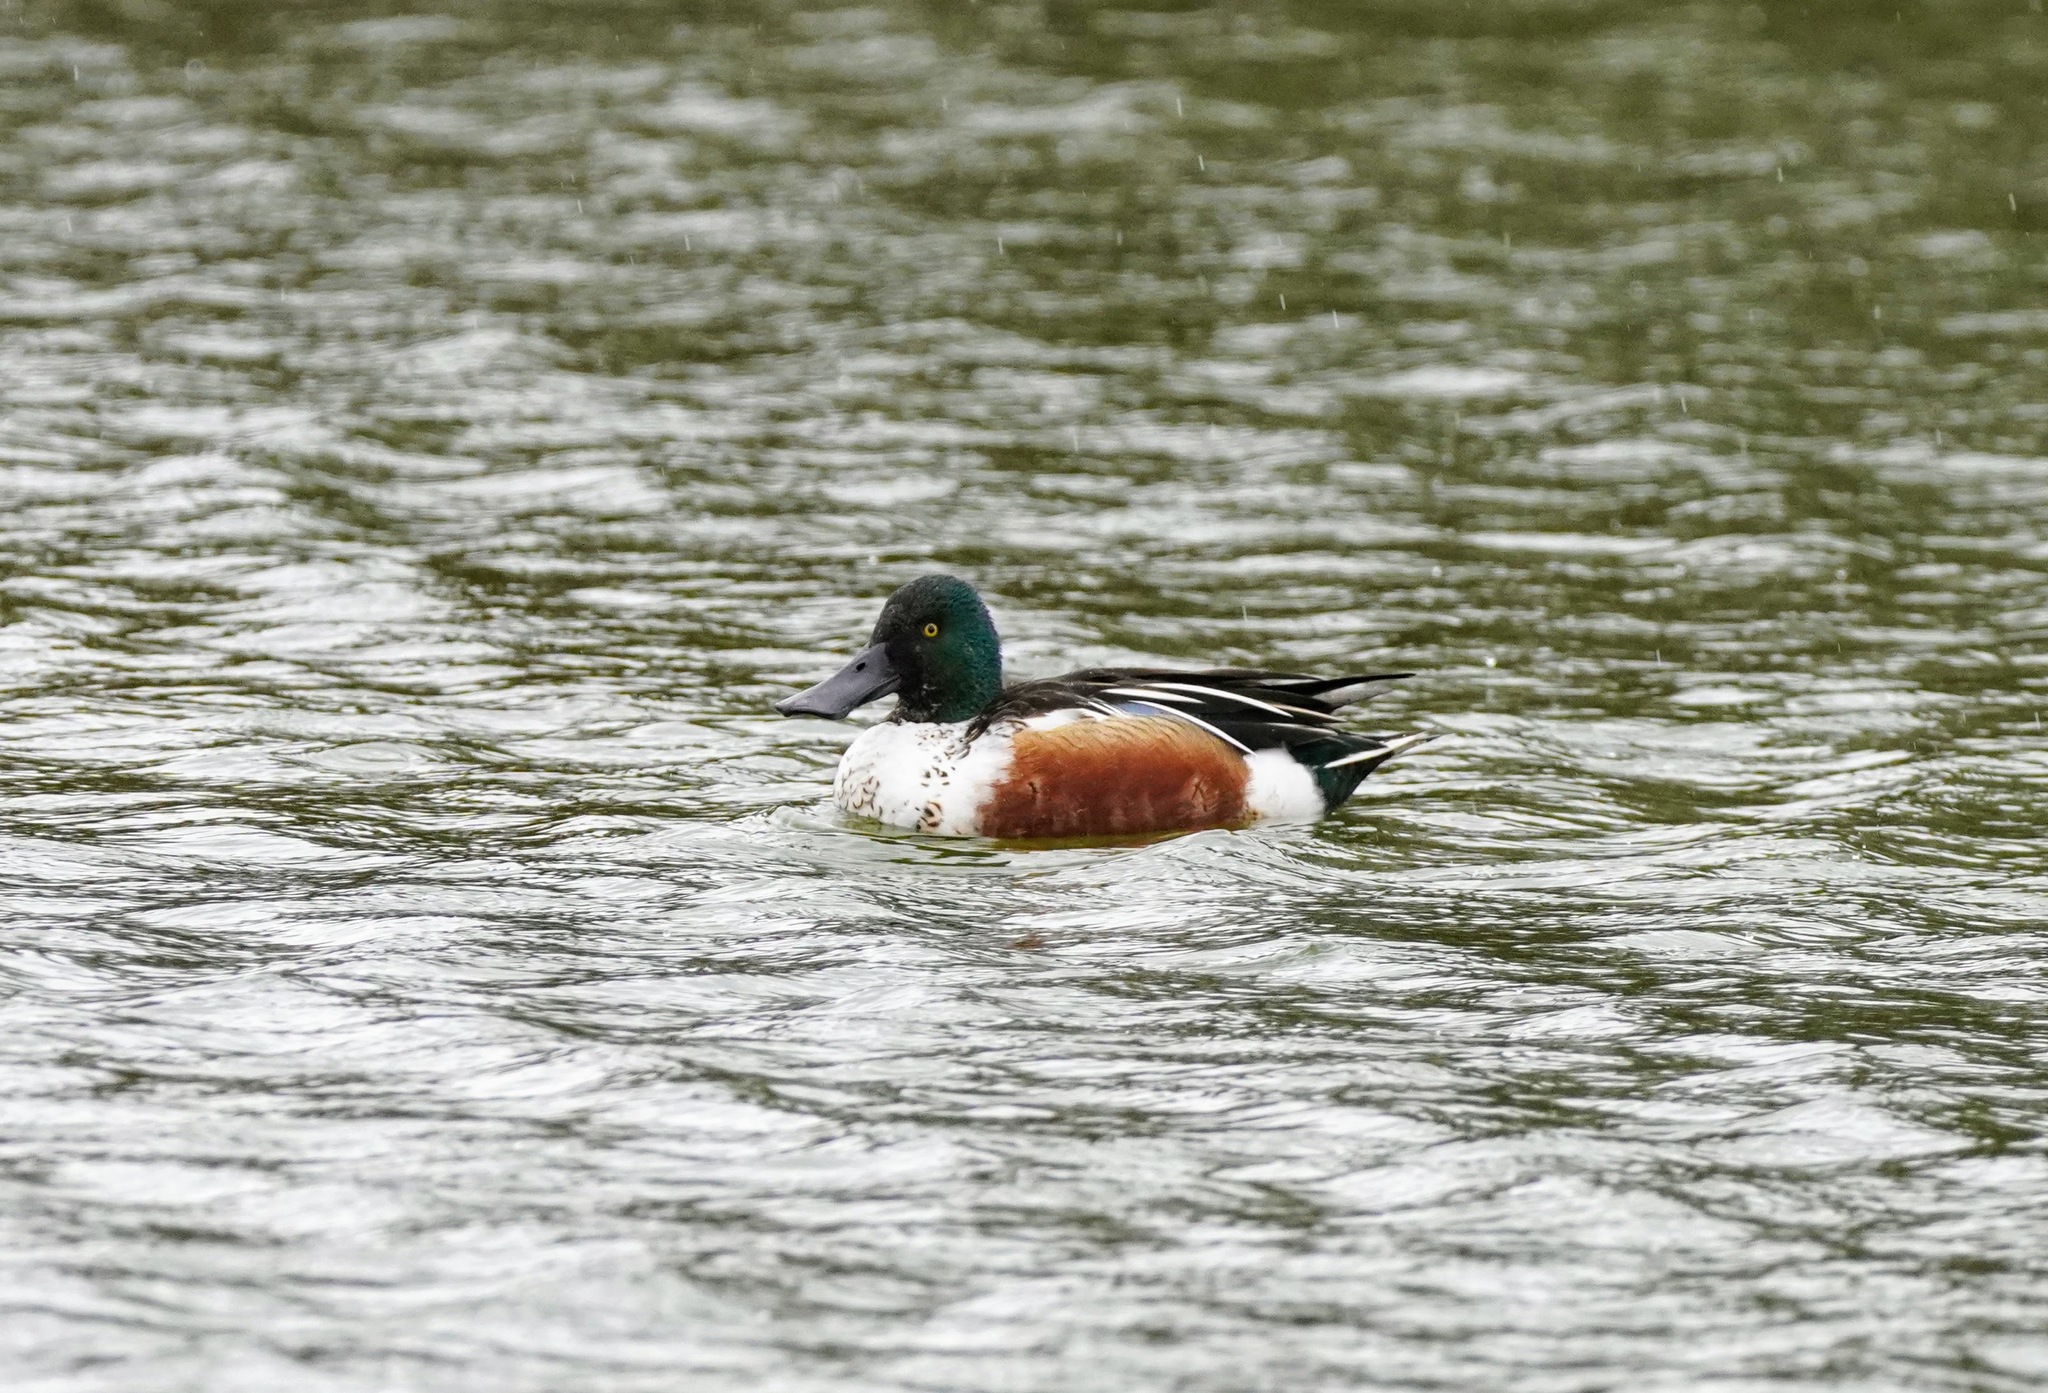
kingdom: Animalia
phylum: Chordata
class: Aves
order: Anseriformes
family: Anatidae
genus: Spatula
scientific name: Spatula clypeata
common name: Northern shoveler
